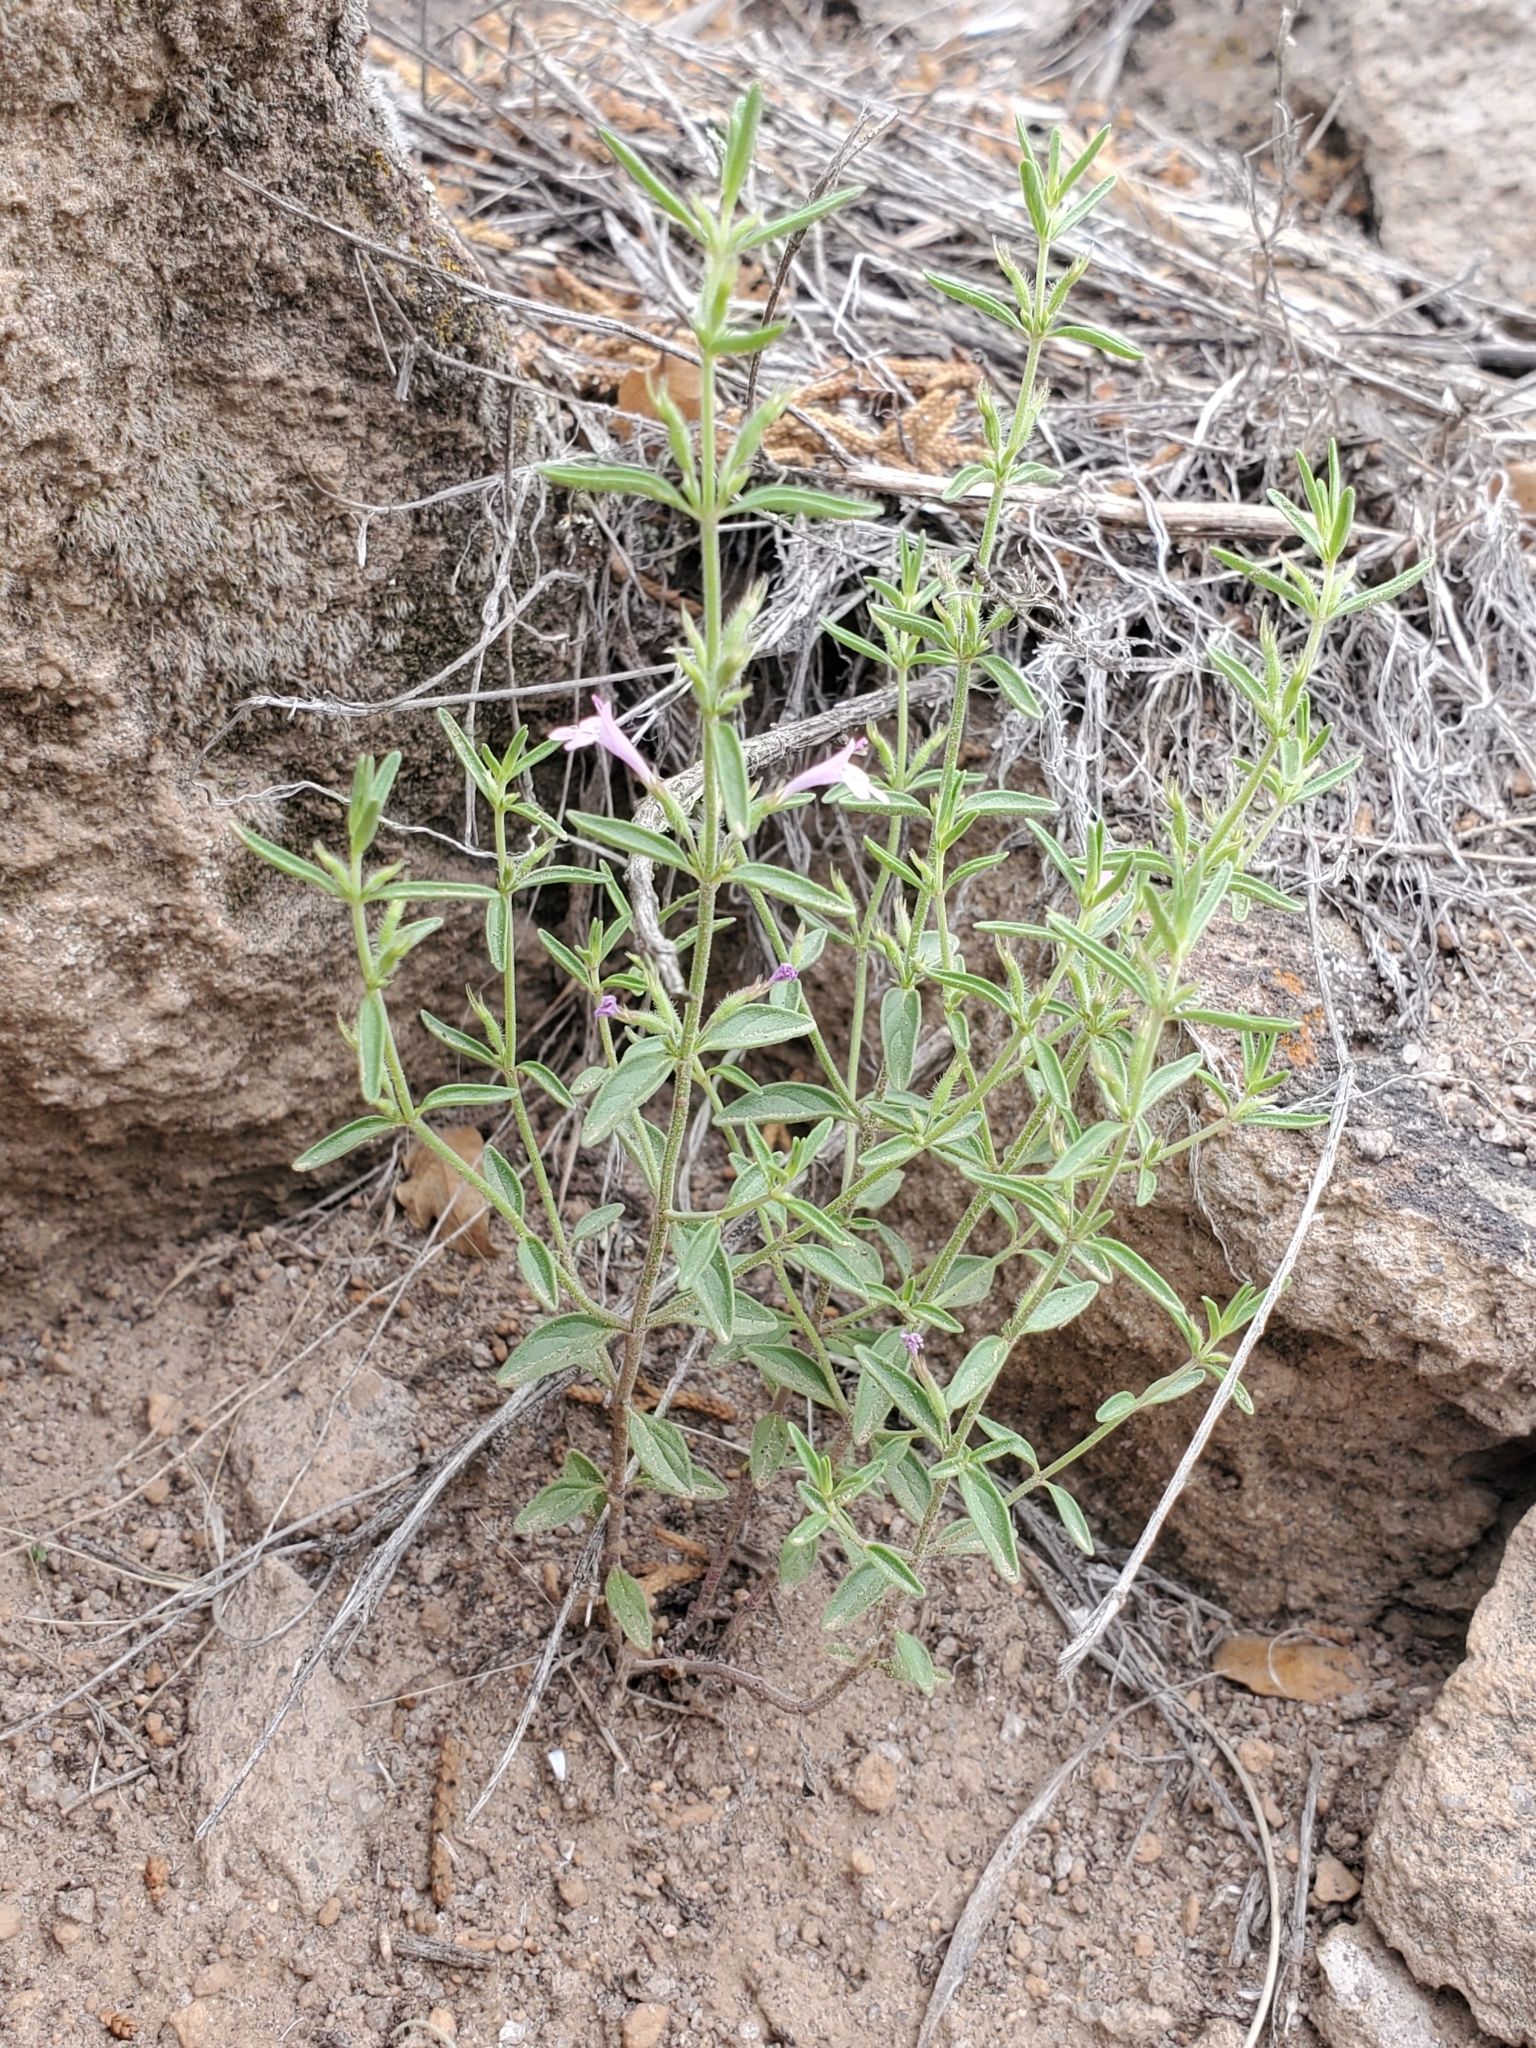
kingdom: Plantae
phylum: Tracheophyta
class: Magnoliopsida
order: Lamiales
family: Lamiaceae
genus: Hedeoma
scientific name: Hedeoma drummondii
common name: New mexico pennyroyal
